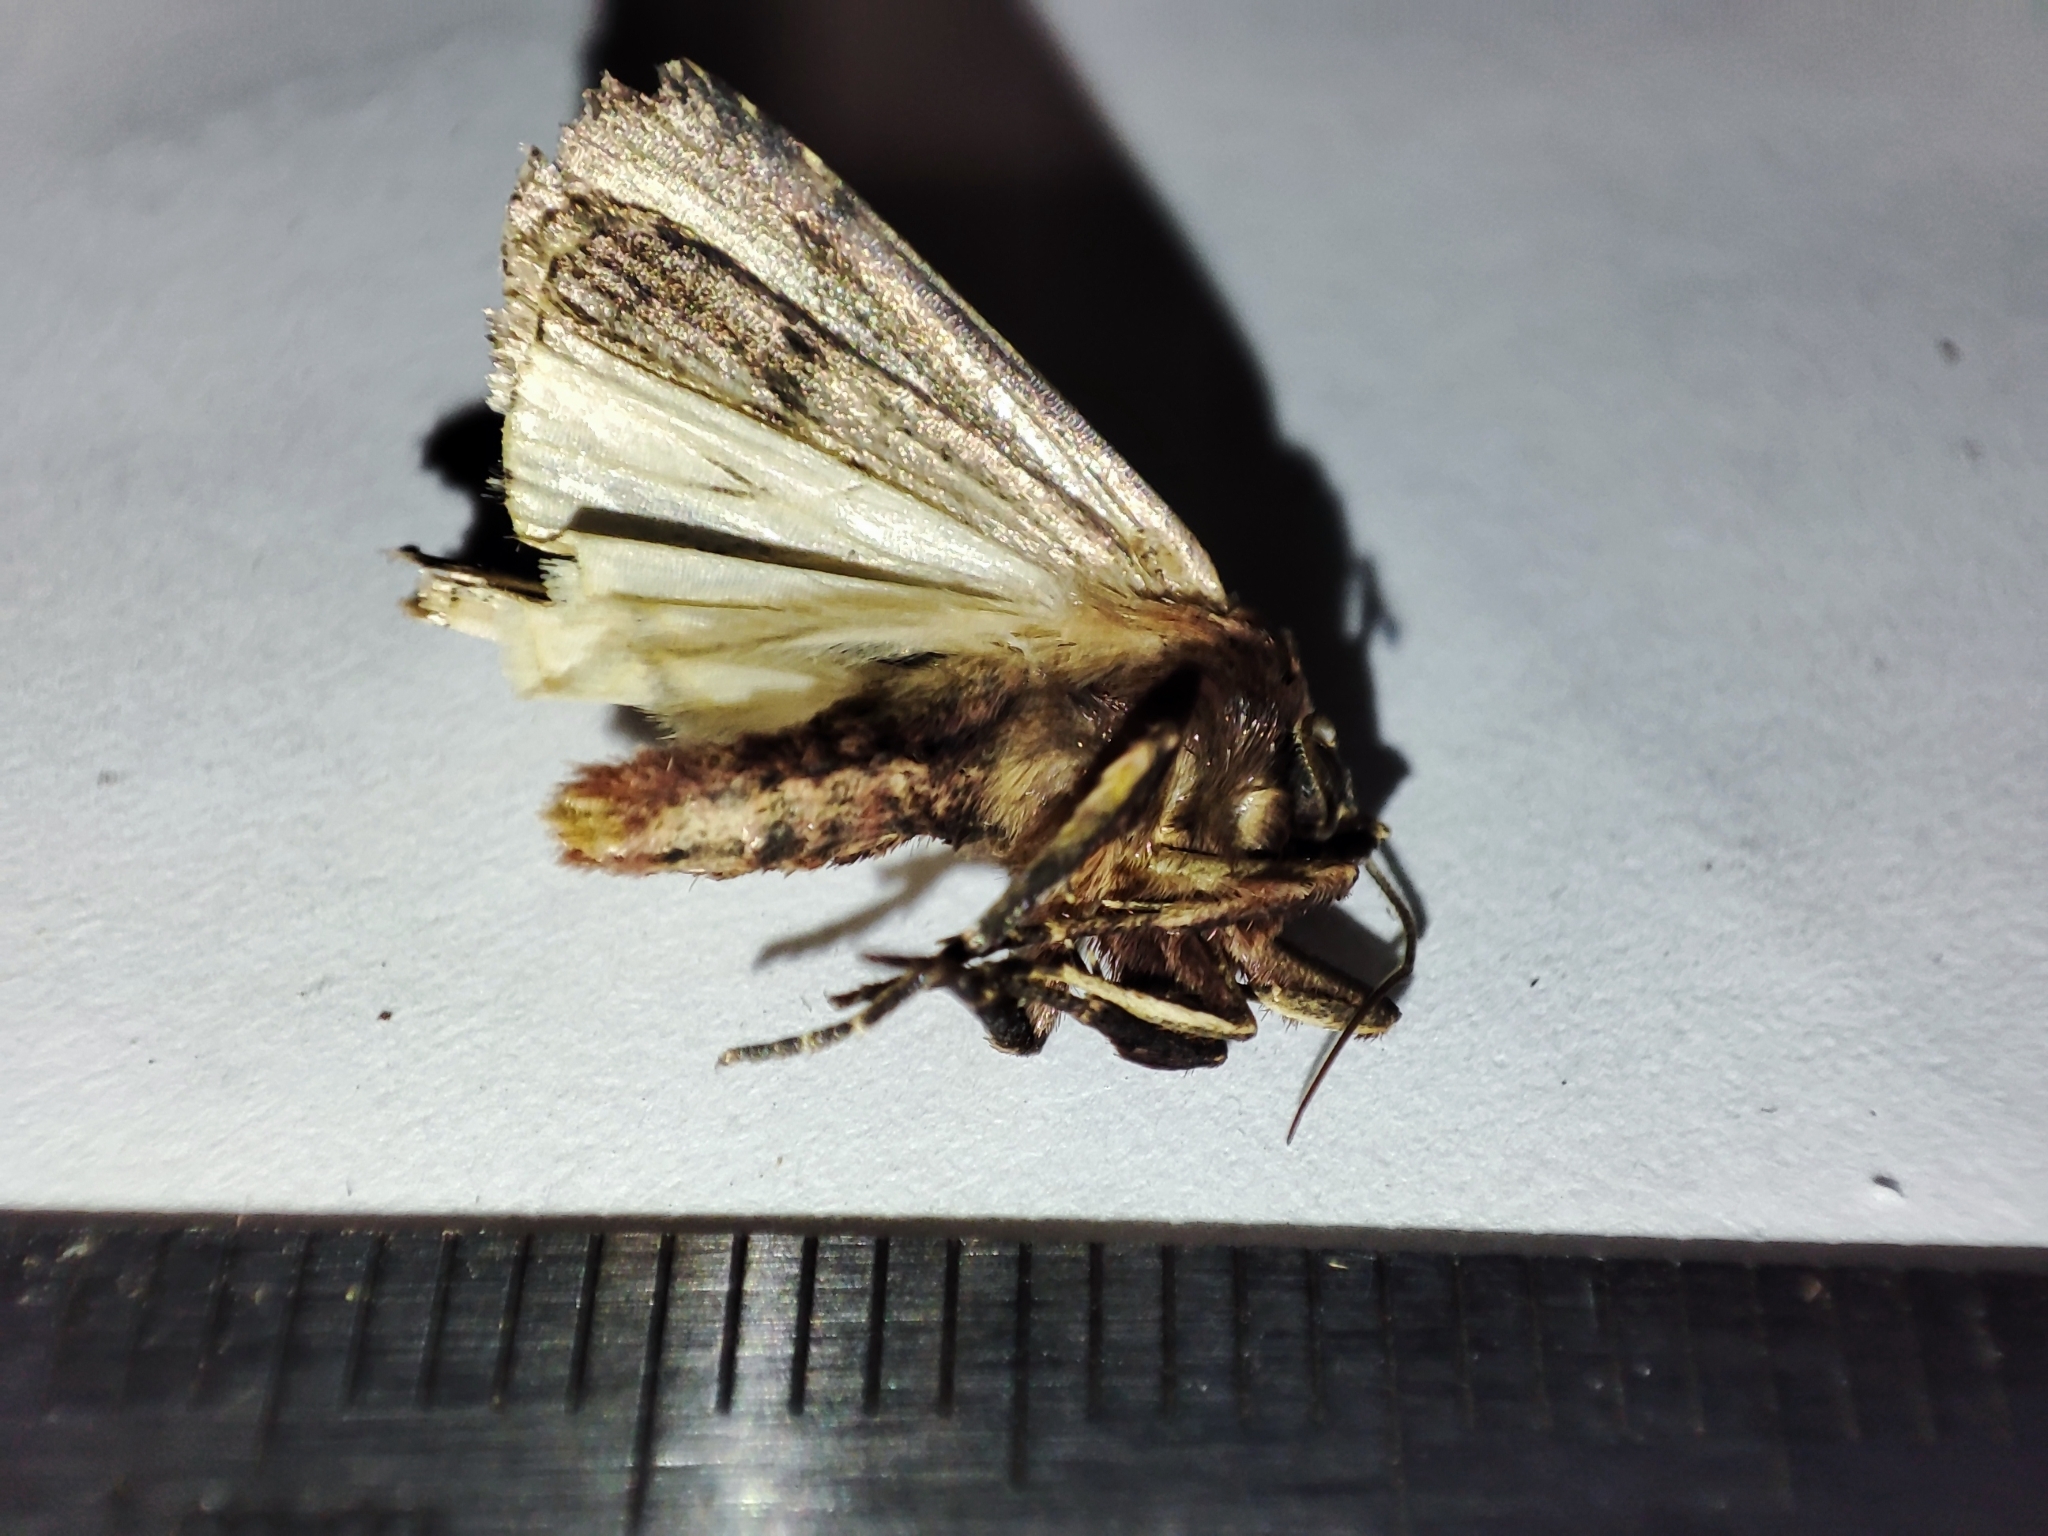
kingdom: Animalia
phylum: Arthropoda
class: Insecta
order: Lepidoptera
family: Noctuidae
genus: Ochropleura
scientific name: Ochropleura plecta
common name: Flame shoulder
